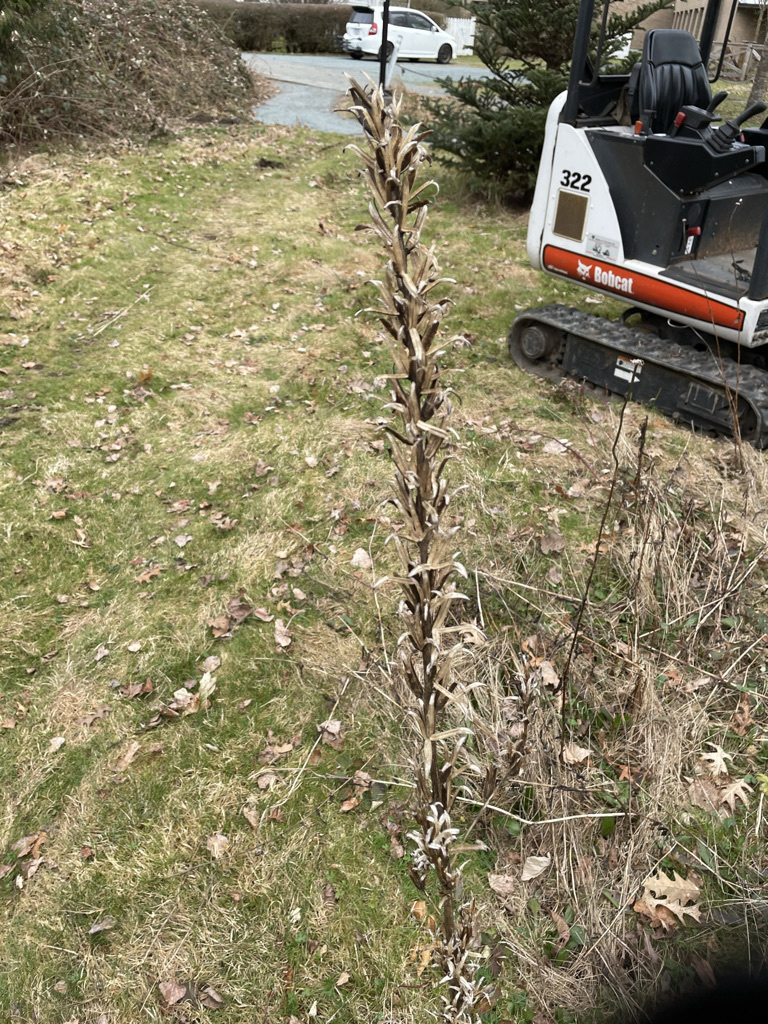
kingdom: Plantae
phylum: Tracheophyta
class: Magnoliopsida
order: Myrtales
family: Onagraceae
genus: Oenothera
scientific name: Oenothera biennis
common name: Common evening-primrose
